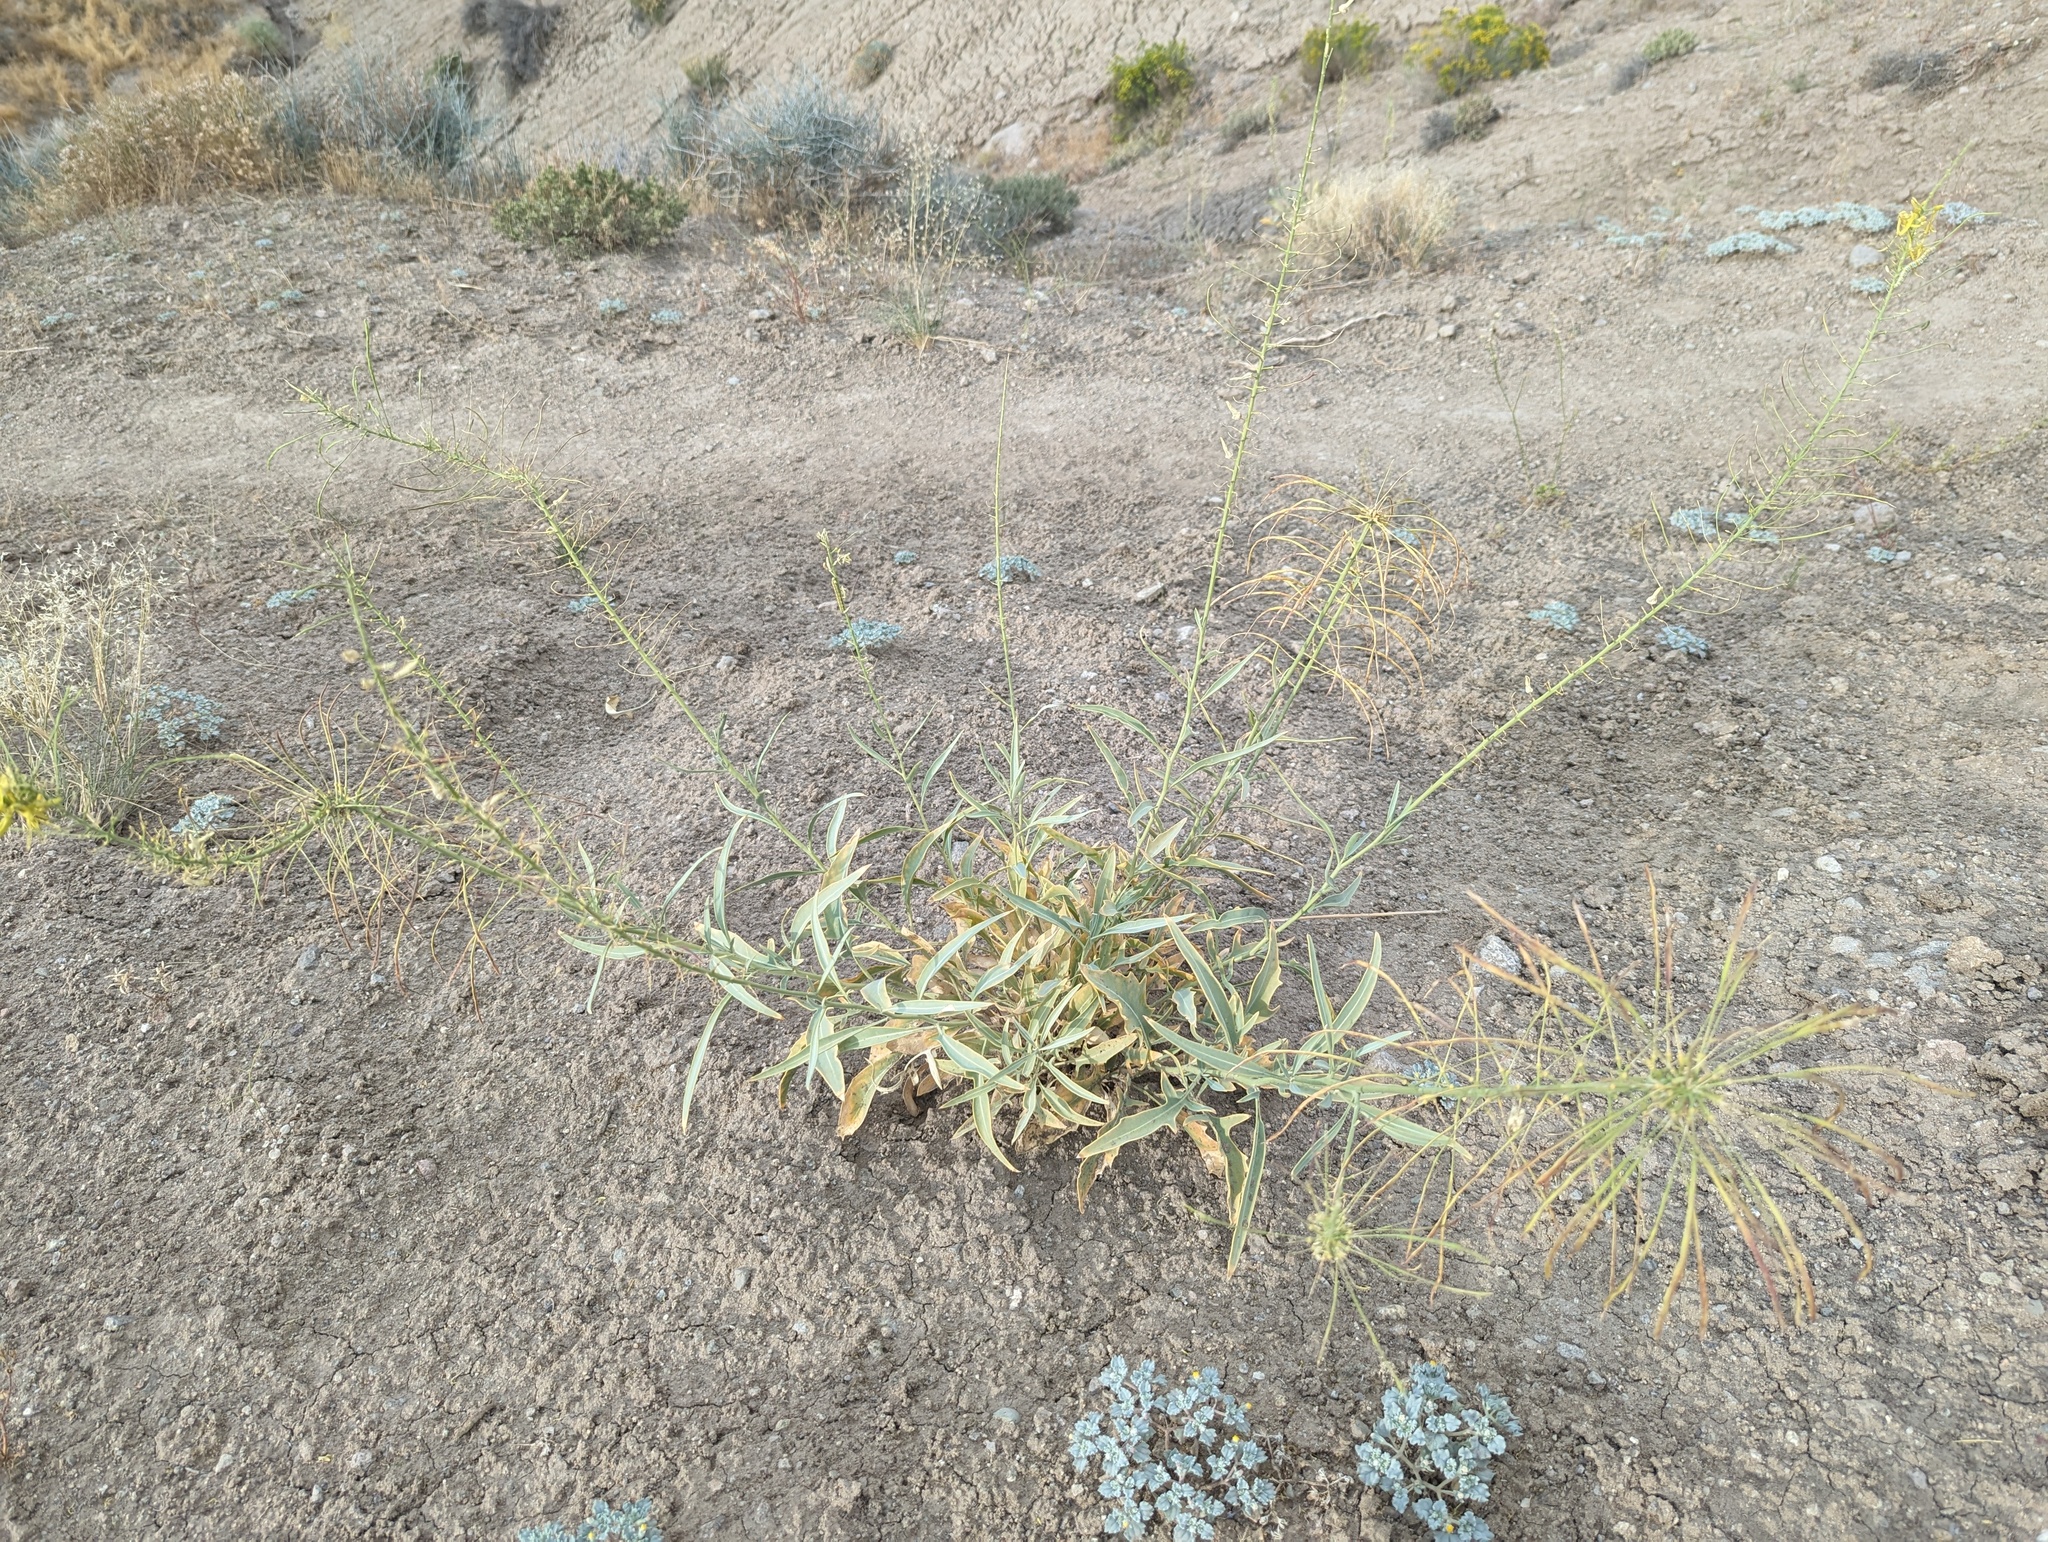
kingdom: Plantae
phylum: Tracheophyta
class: Magnoliopsida
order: Brassicales
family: Brassicaceae
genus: Stanleya
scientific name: Stanleya pinnata
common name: Prince's-plume
